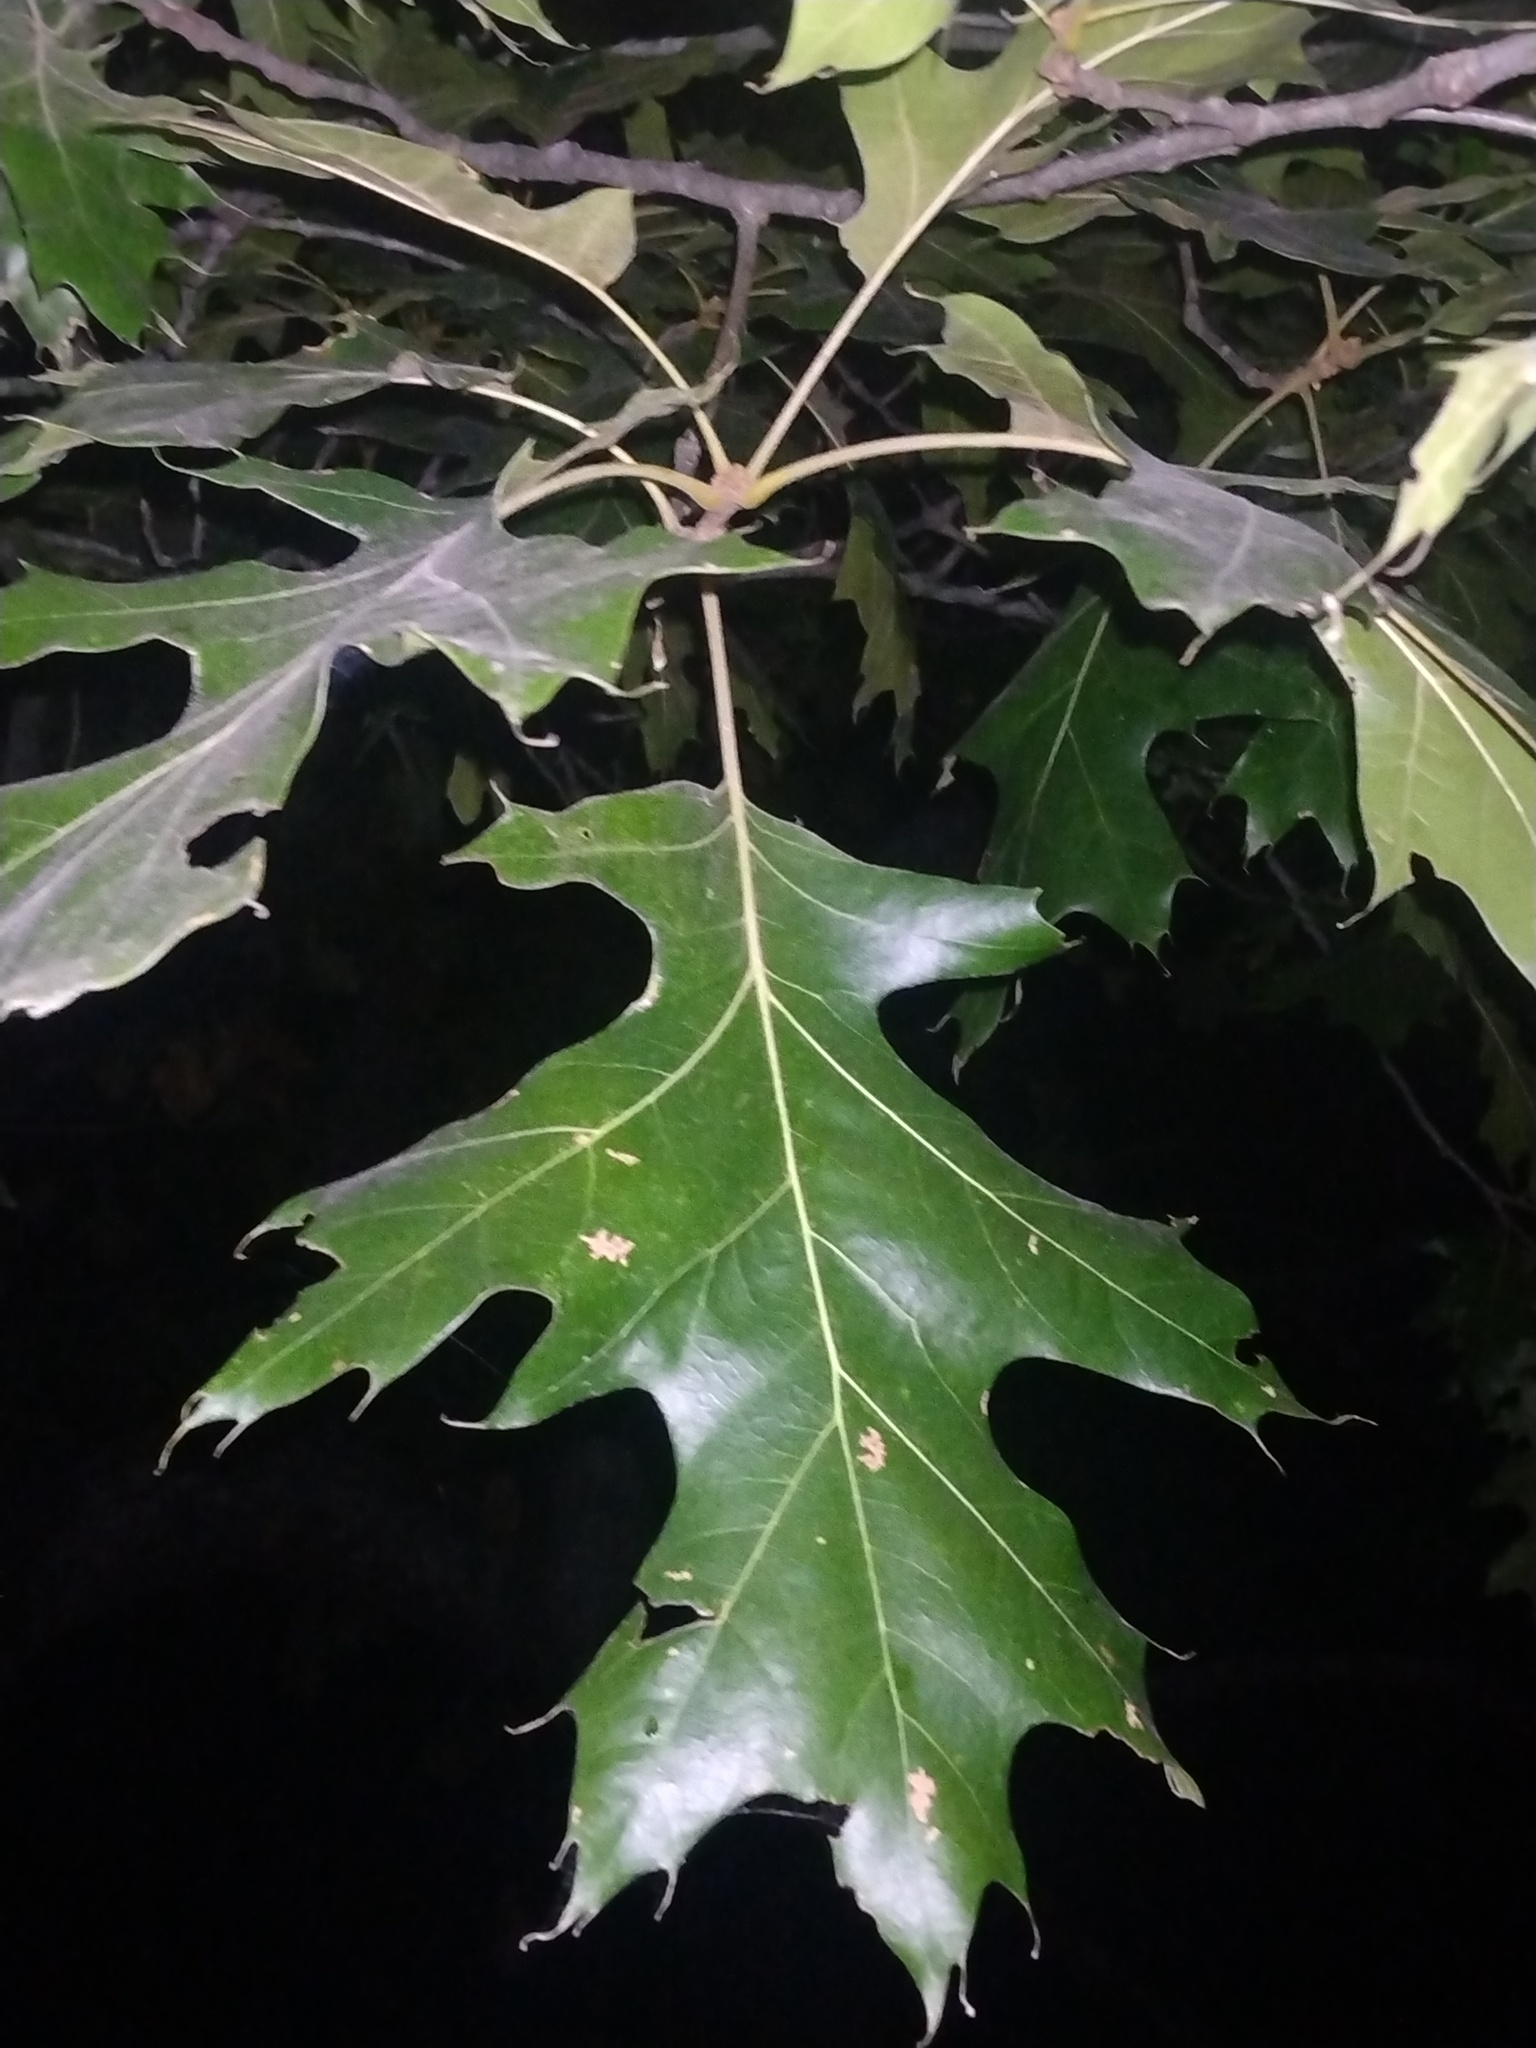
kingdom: Plantae
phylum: Tracheophyta
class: Magnoliopsida
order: Fagales
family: Fagaceae
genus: Quercus
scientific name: Quercus velutina
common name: Black oak
